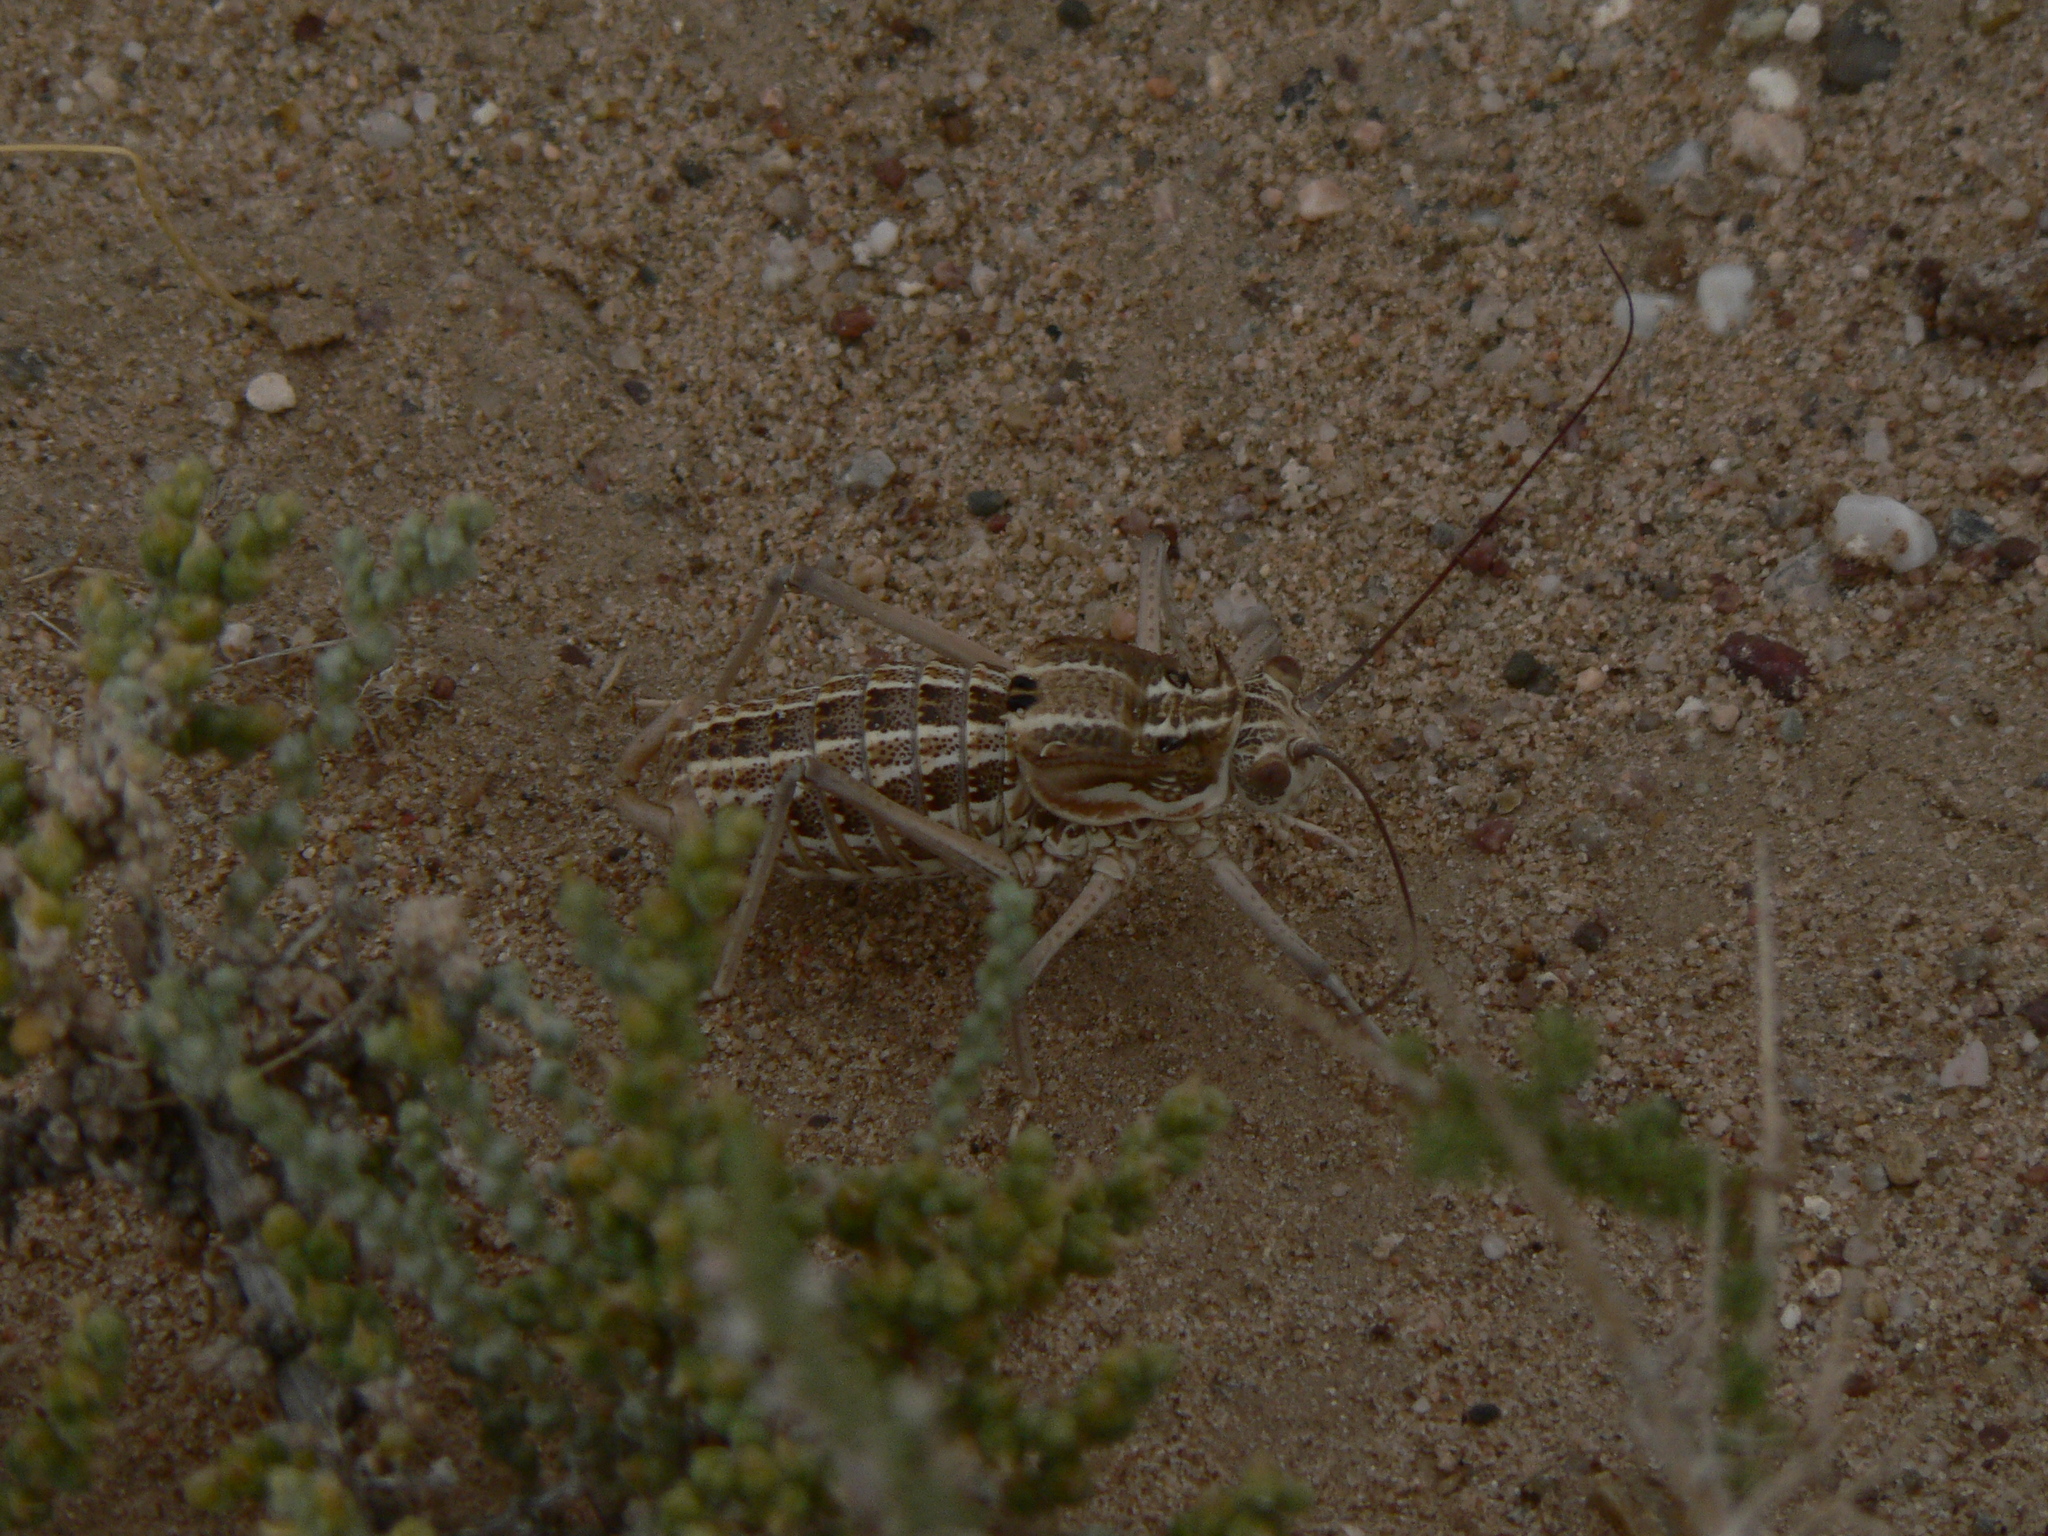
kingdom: Animalia
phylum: Arthropoda
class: Insecta
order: Orthoptera
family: Tettigoniidae
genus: Zichya
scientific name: Zichya baranovi
